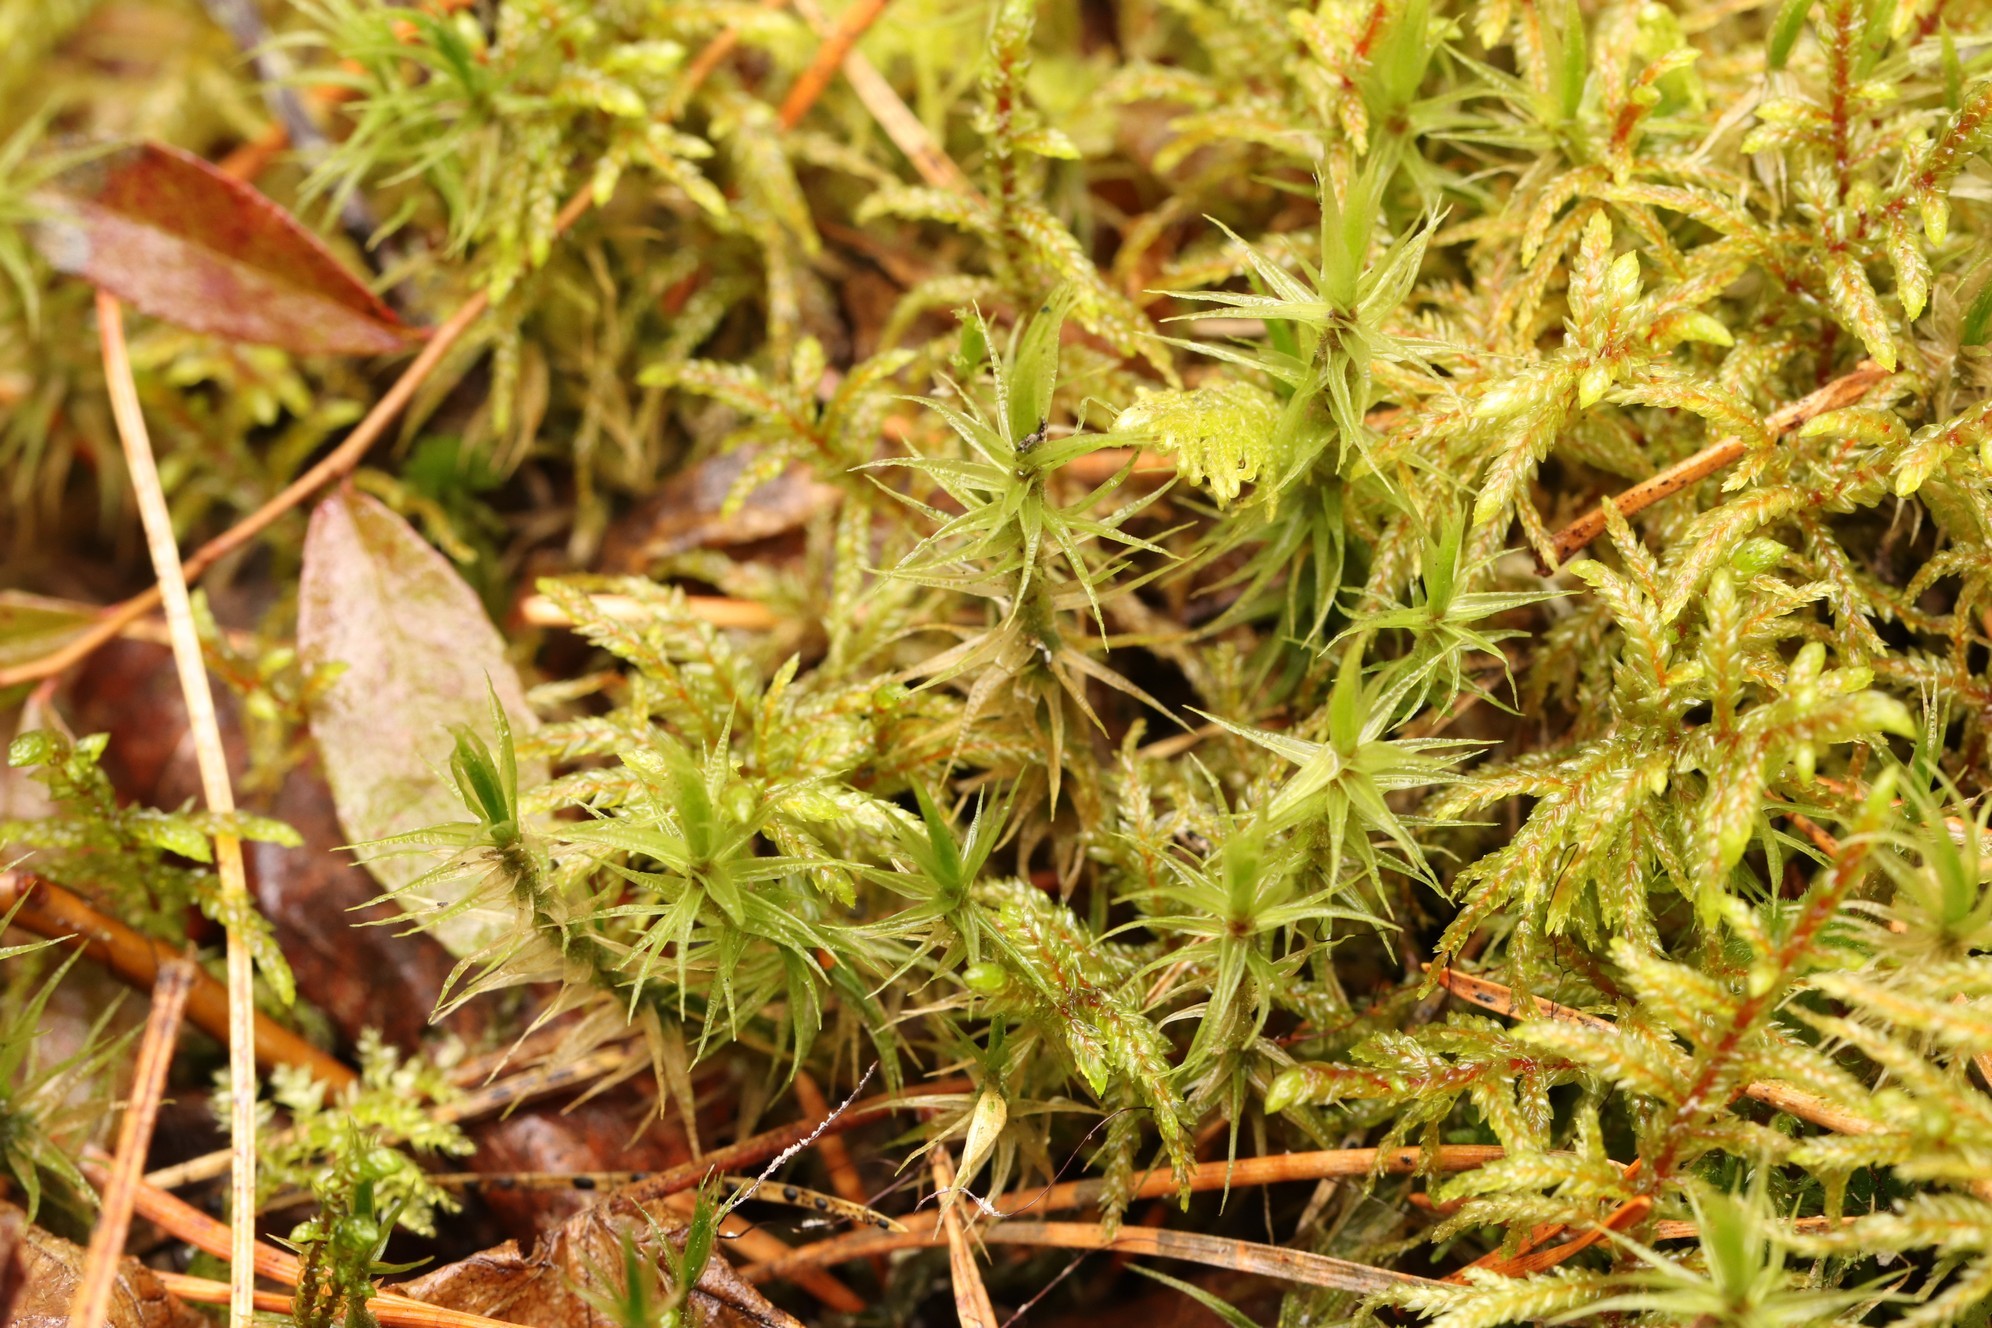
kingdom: Plantae
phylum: Bryophyta
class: Bryopsida
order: Dicranales
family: Dicranaceae
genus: Dicranum
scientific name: Dicranum polysetum
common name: Rugose fork-moss
